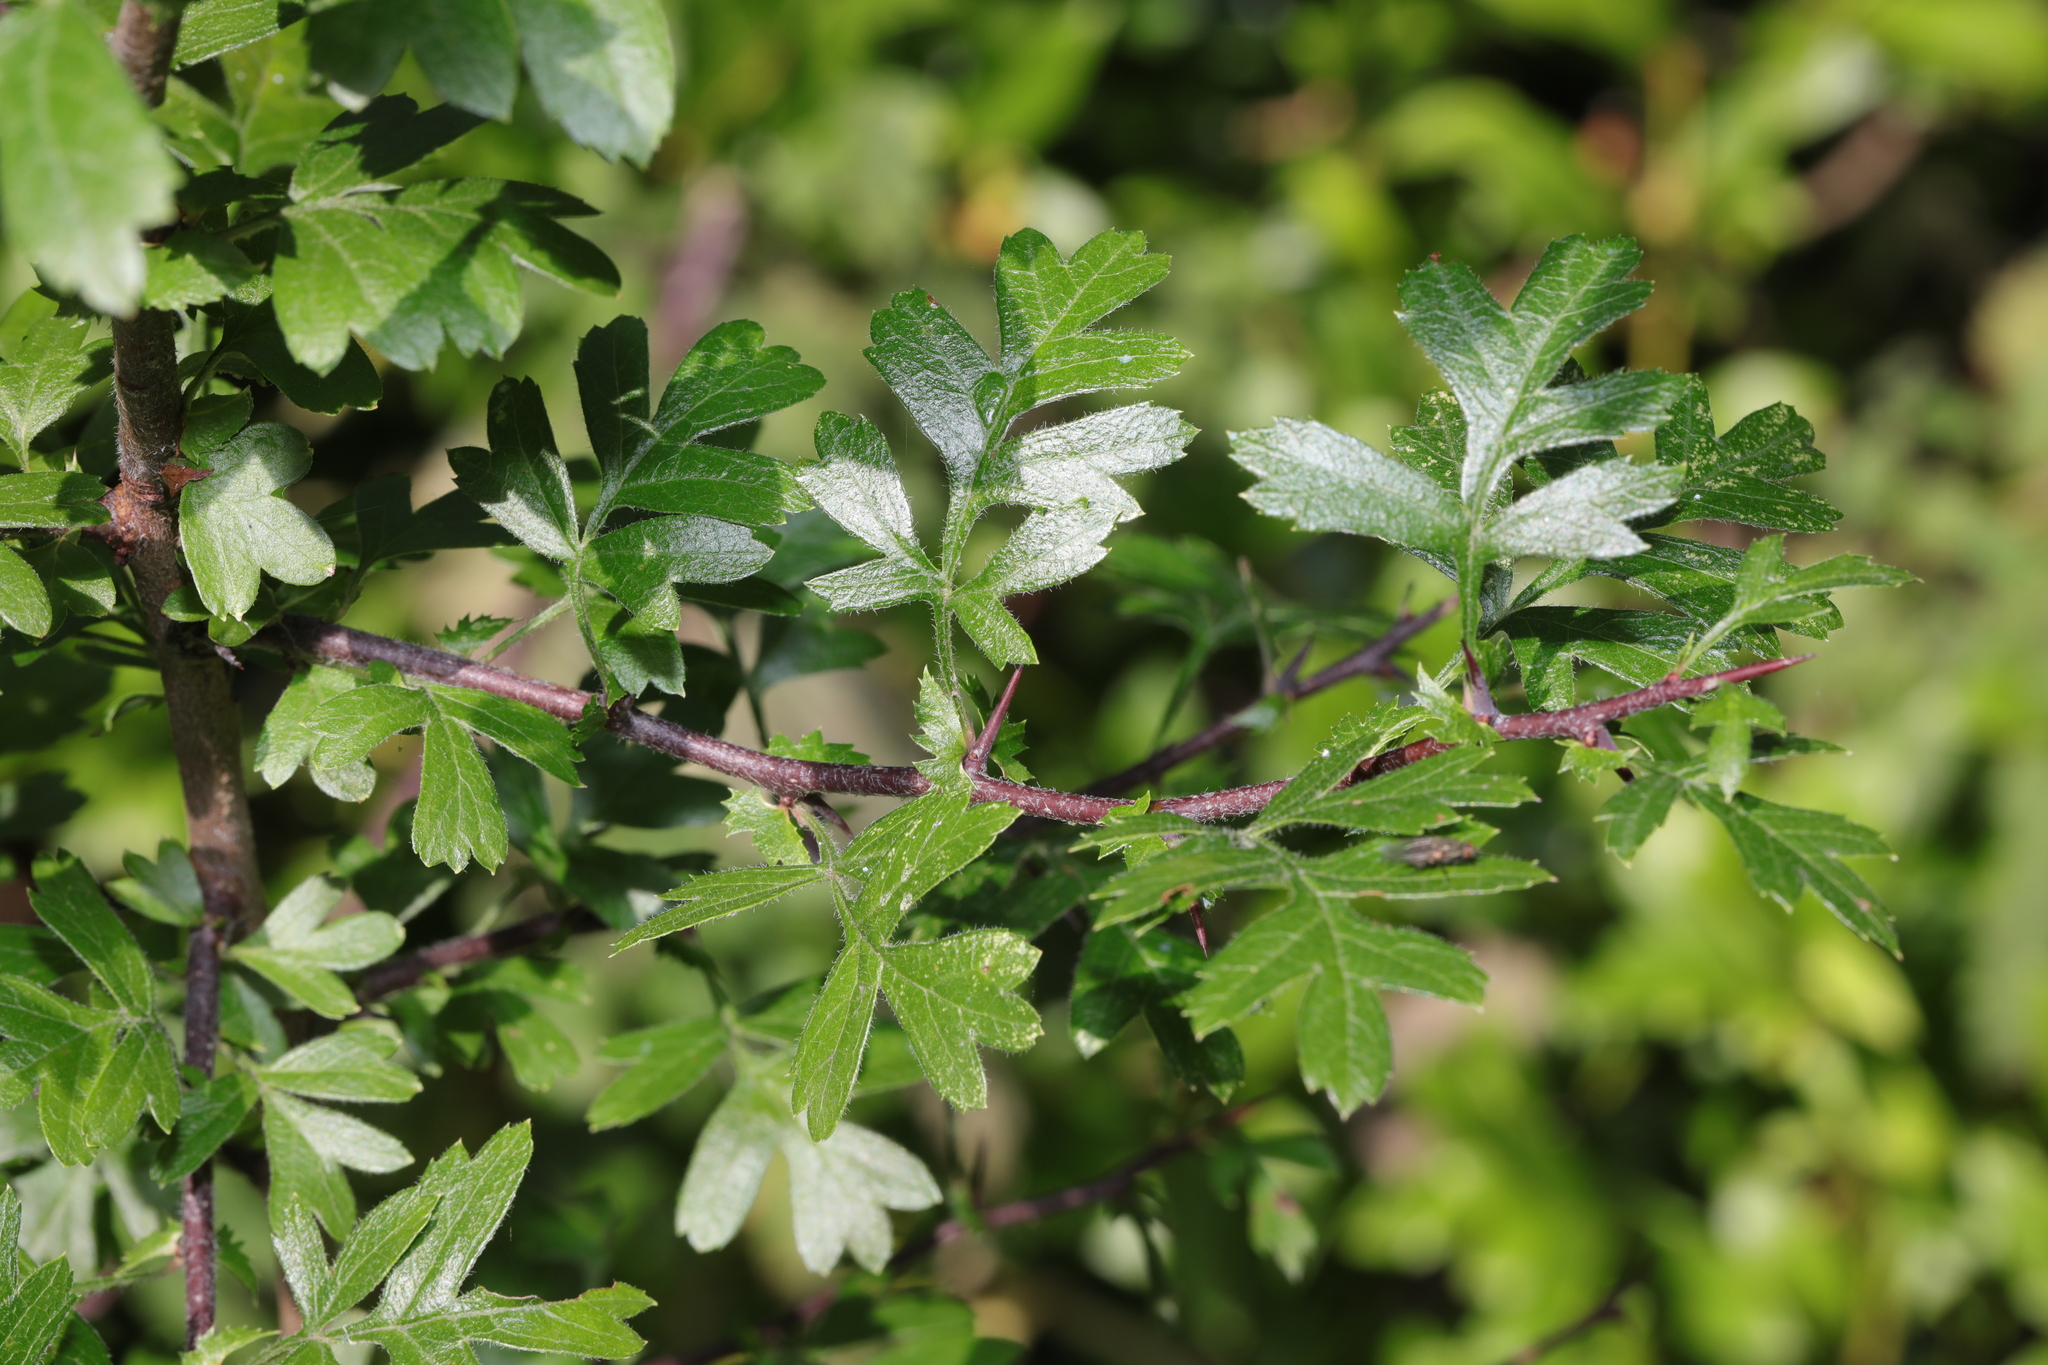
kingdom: Plantae
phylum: Tracheophyta
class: Magnoliopsida
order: Rosales
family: Rosaceae
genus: Crataegus
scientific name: Crataegus monogyna
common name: Hawthorn
